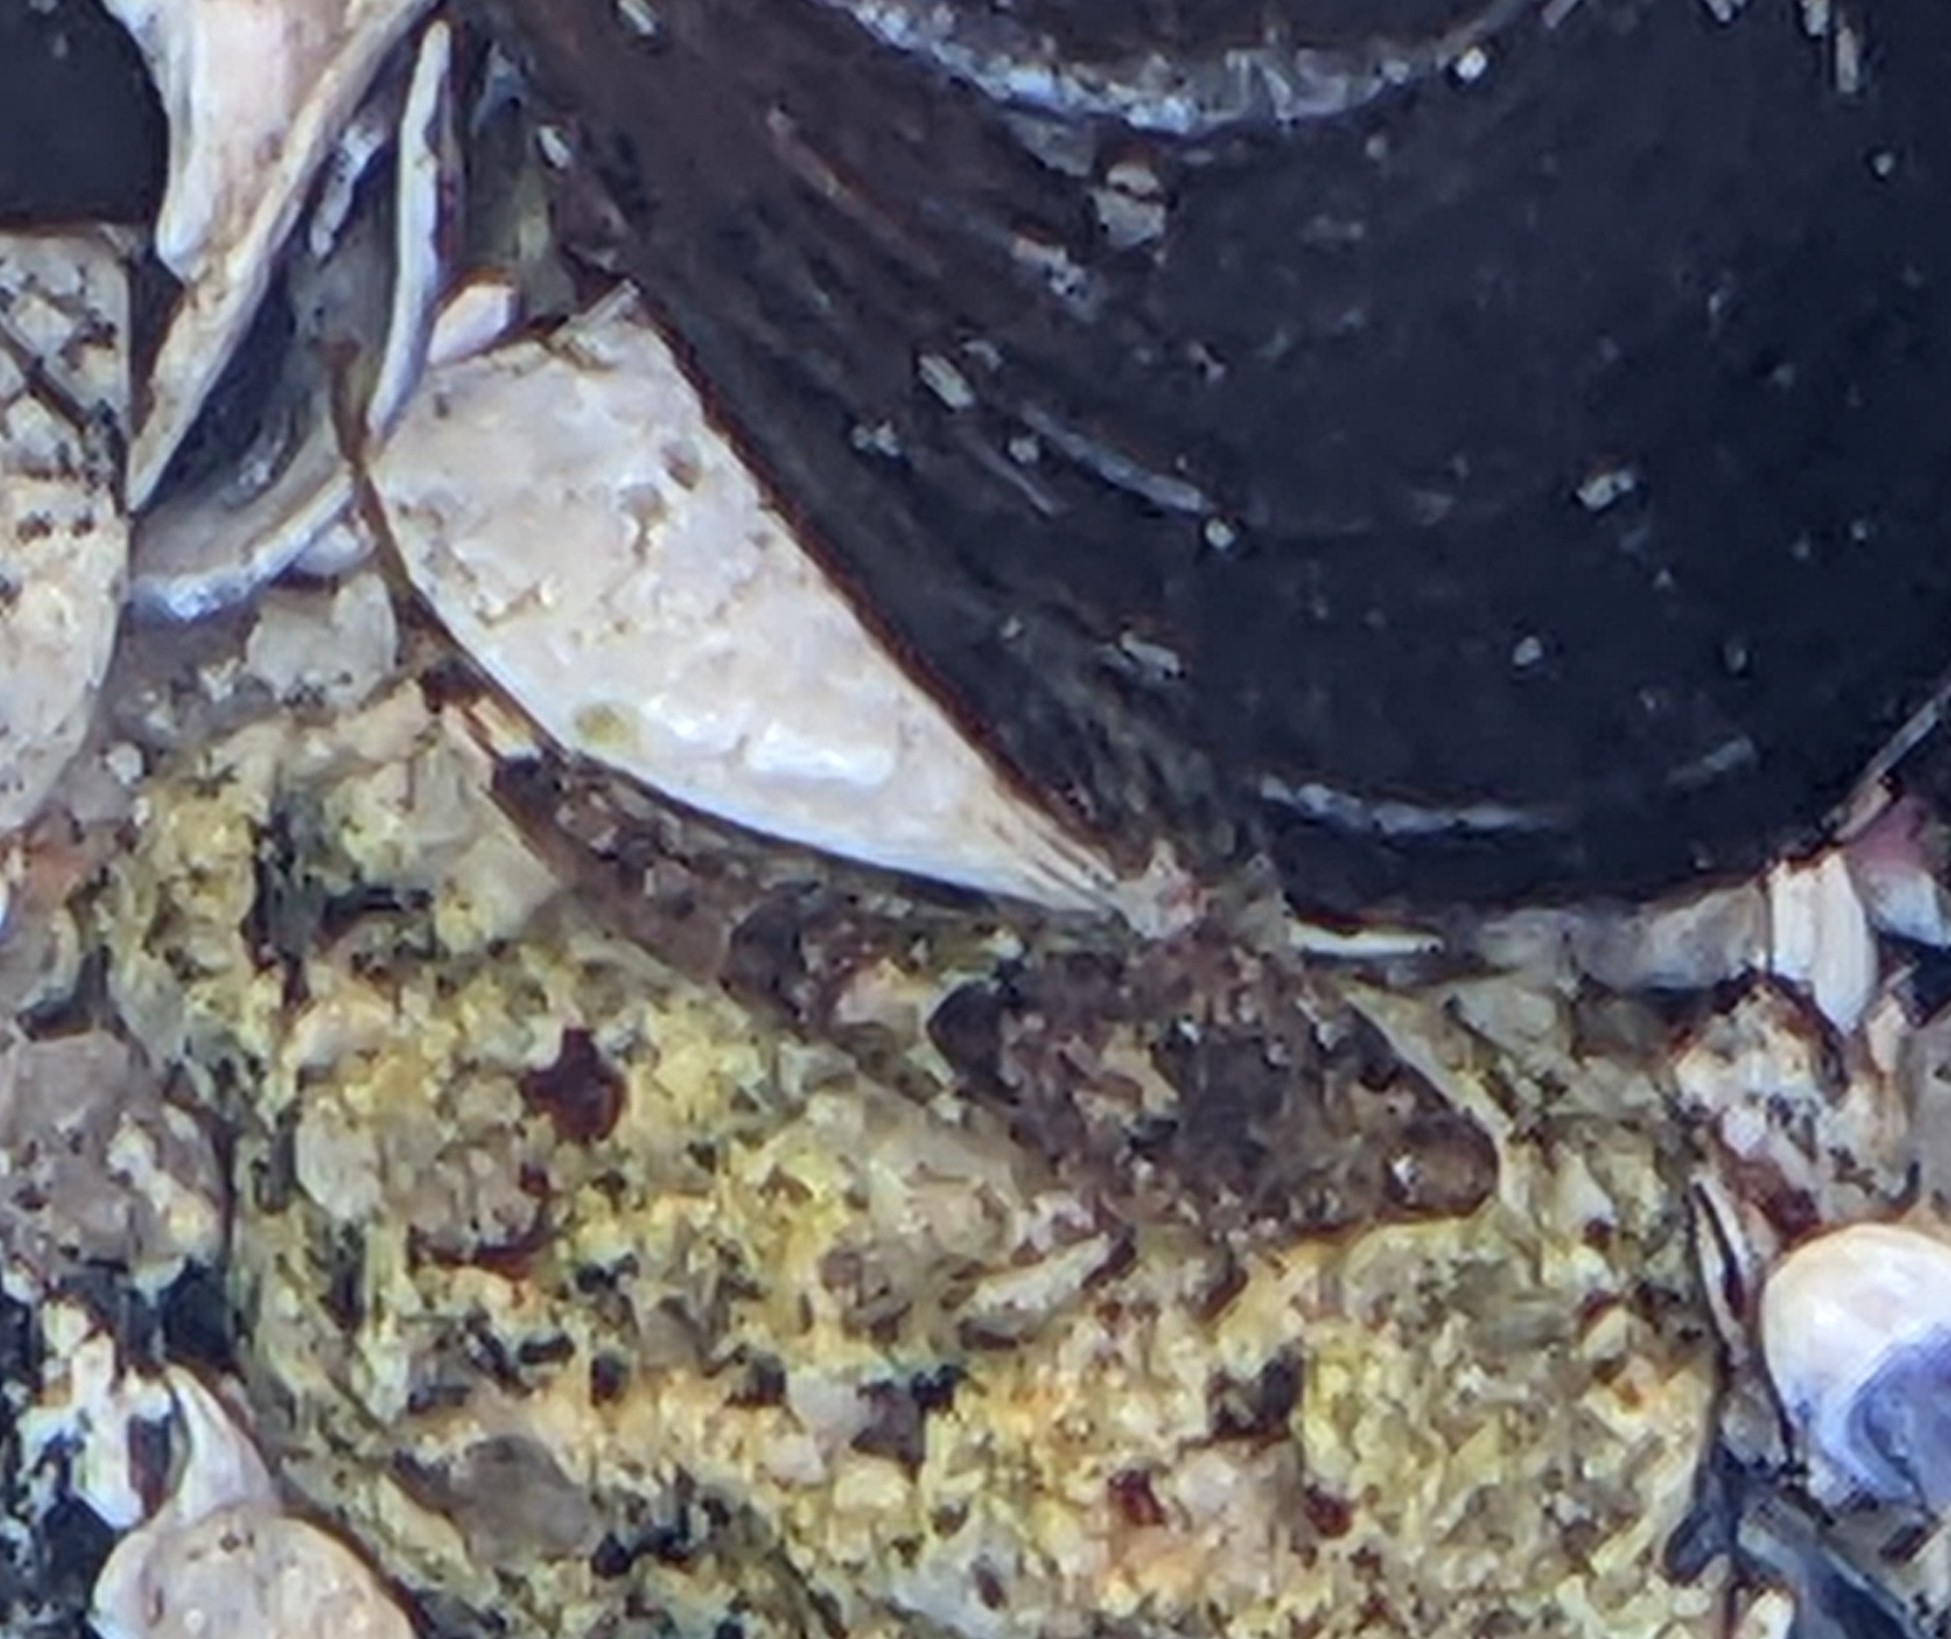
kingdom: Animalia
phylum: Chordata
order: Scorpaeniformes
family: Cottidae
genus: Clinocottus
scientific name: Clinocottus analis
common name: Woolly sculpin
